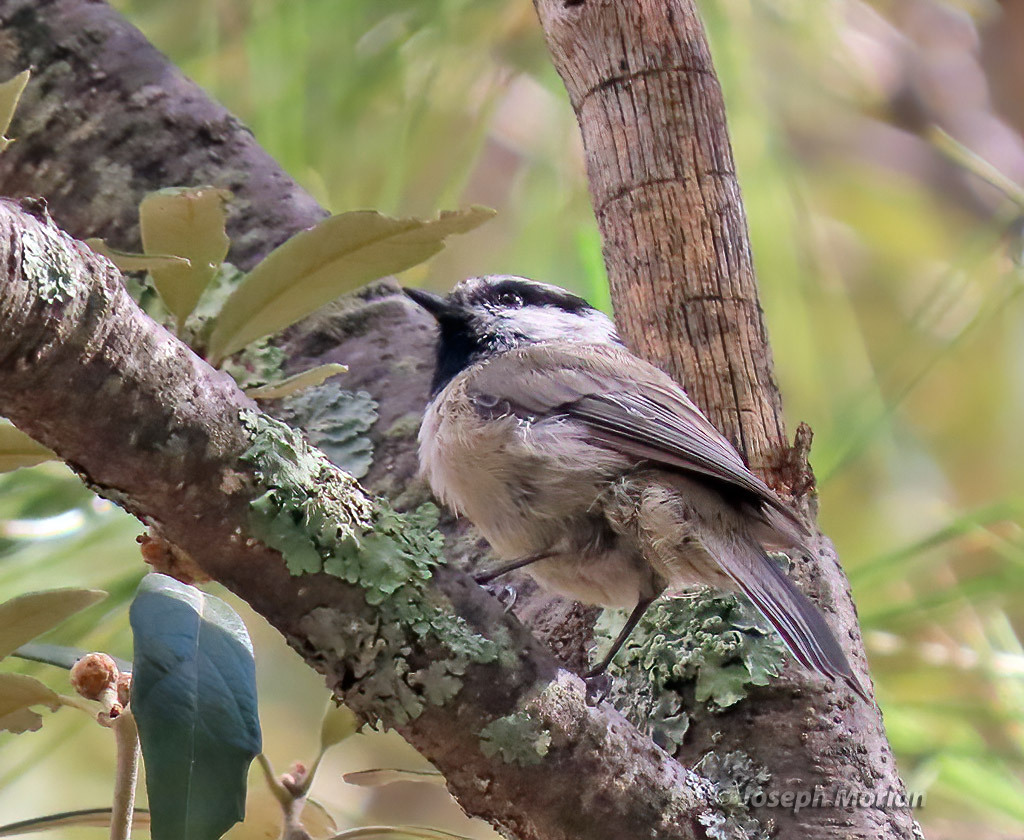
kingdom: Animalia
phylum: Chordata
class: Aves
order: Passeriformes
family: Paridae
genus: Poecile
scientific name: Poecile gambeli
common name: Mountain chickadee
